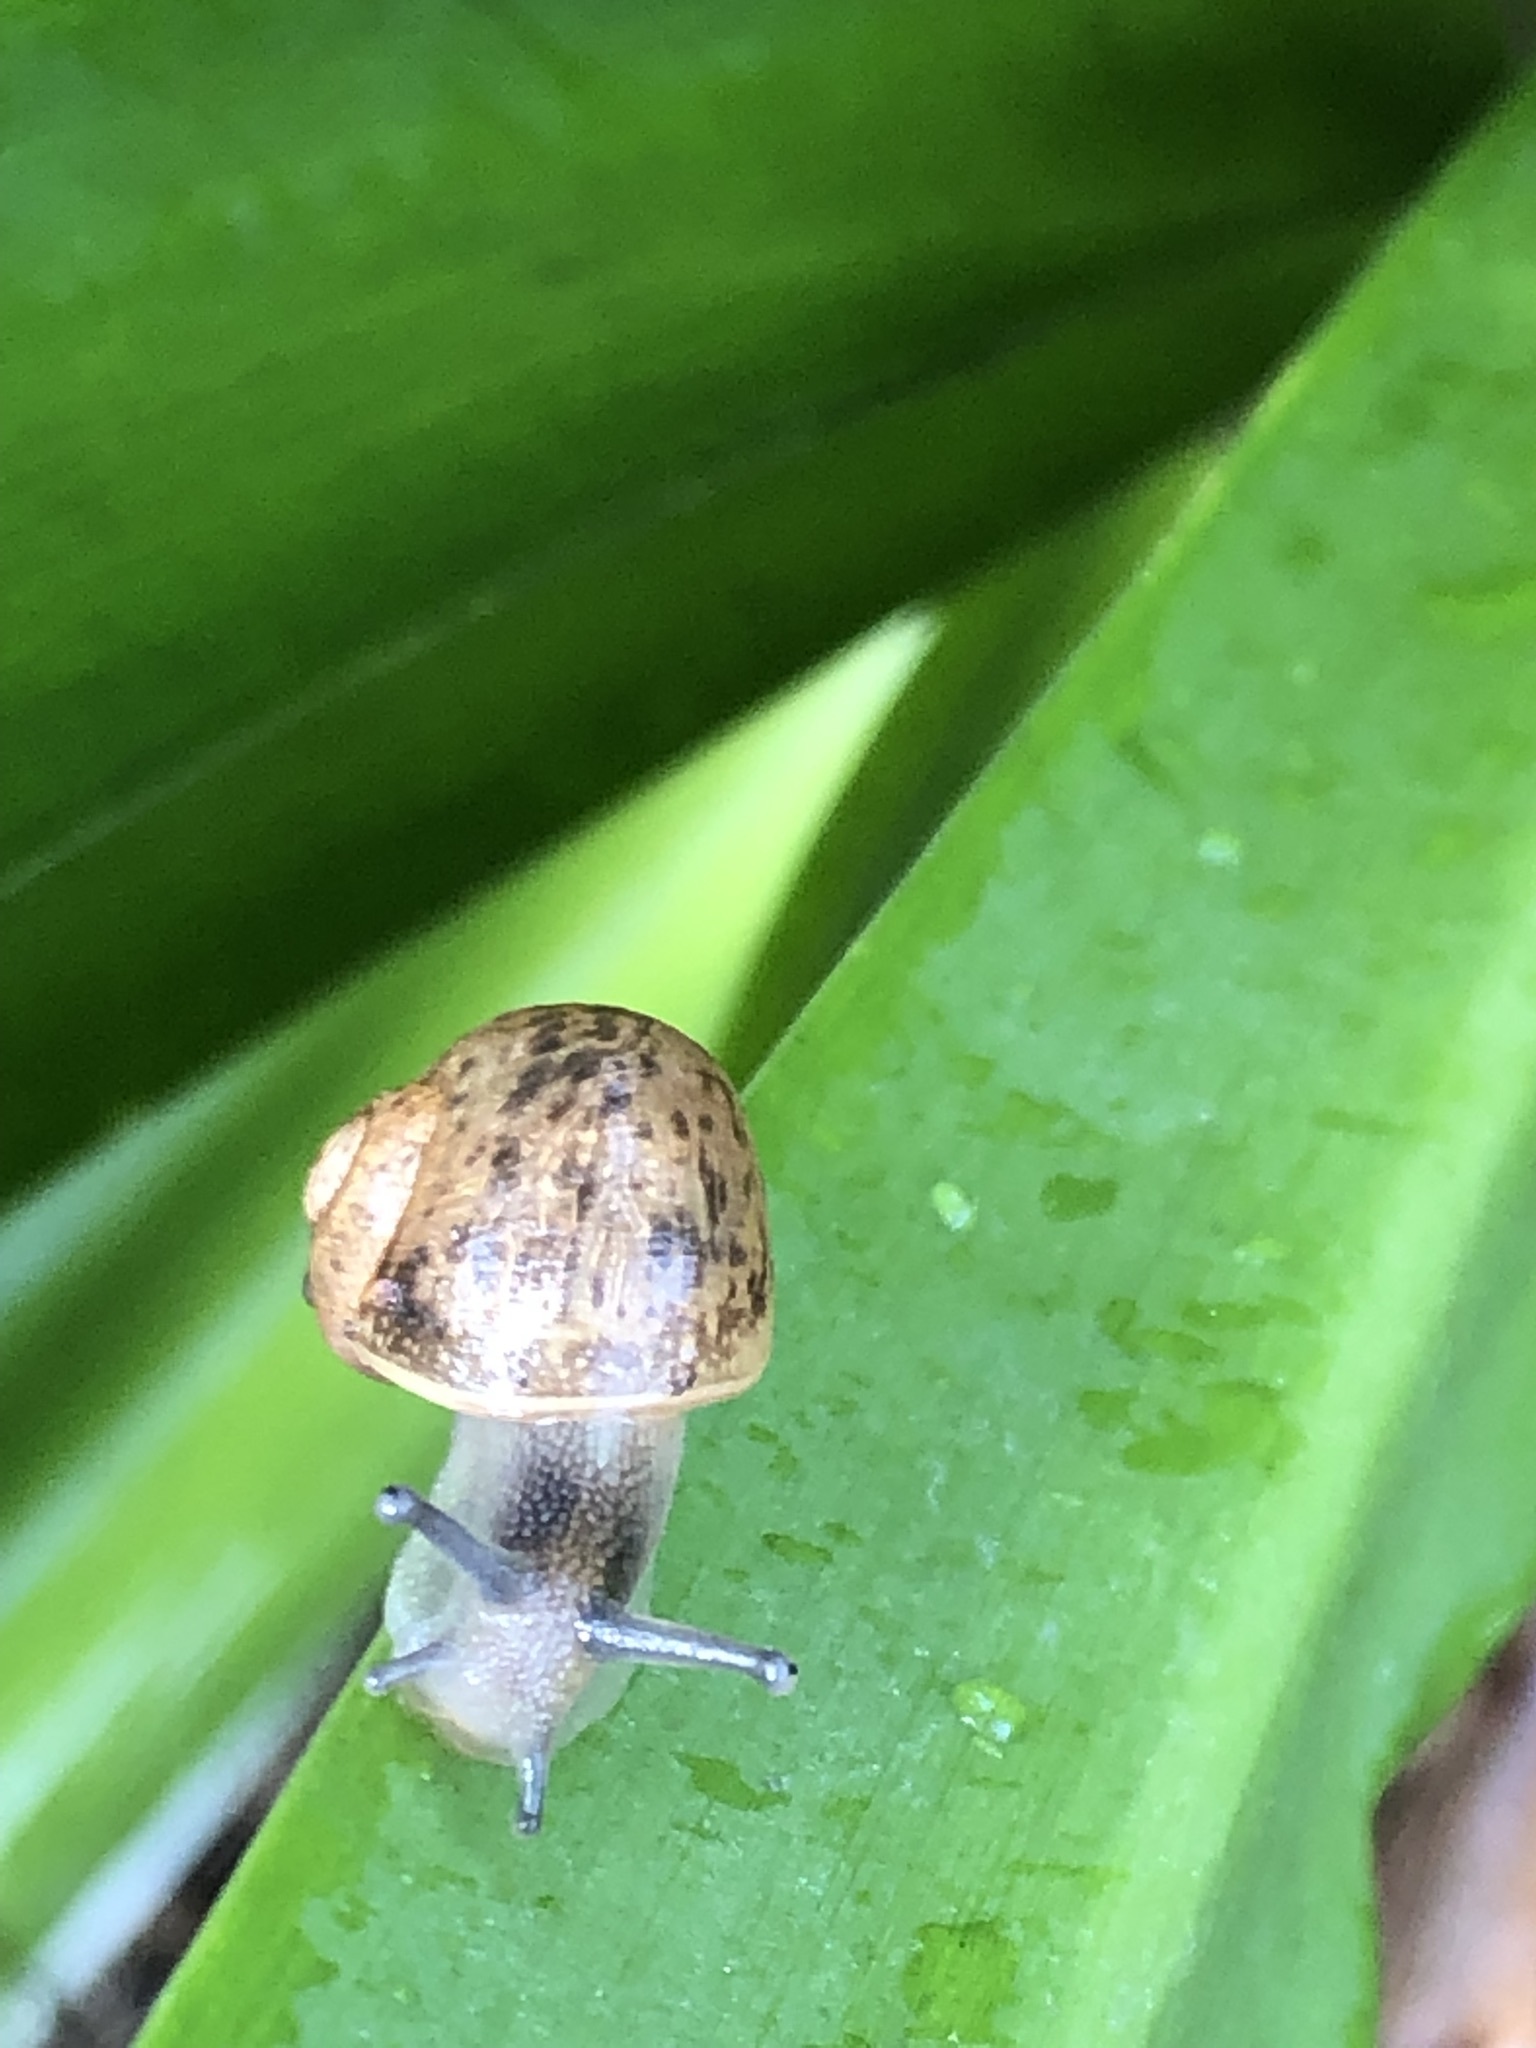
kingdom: Animalia
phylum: Mollusca
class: Gastropoda
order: Stylommatophora
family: Helicidae
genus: Cornu
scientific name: Cornu aspersum
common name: Brown garden snail
